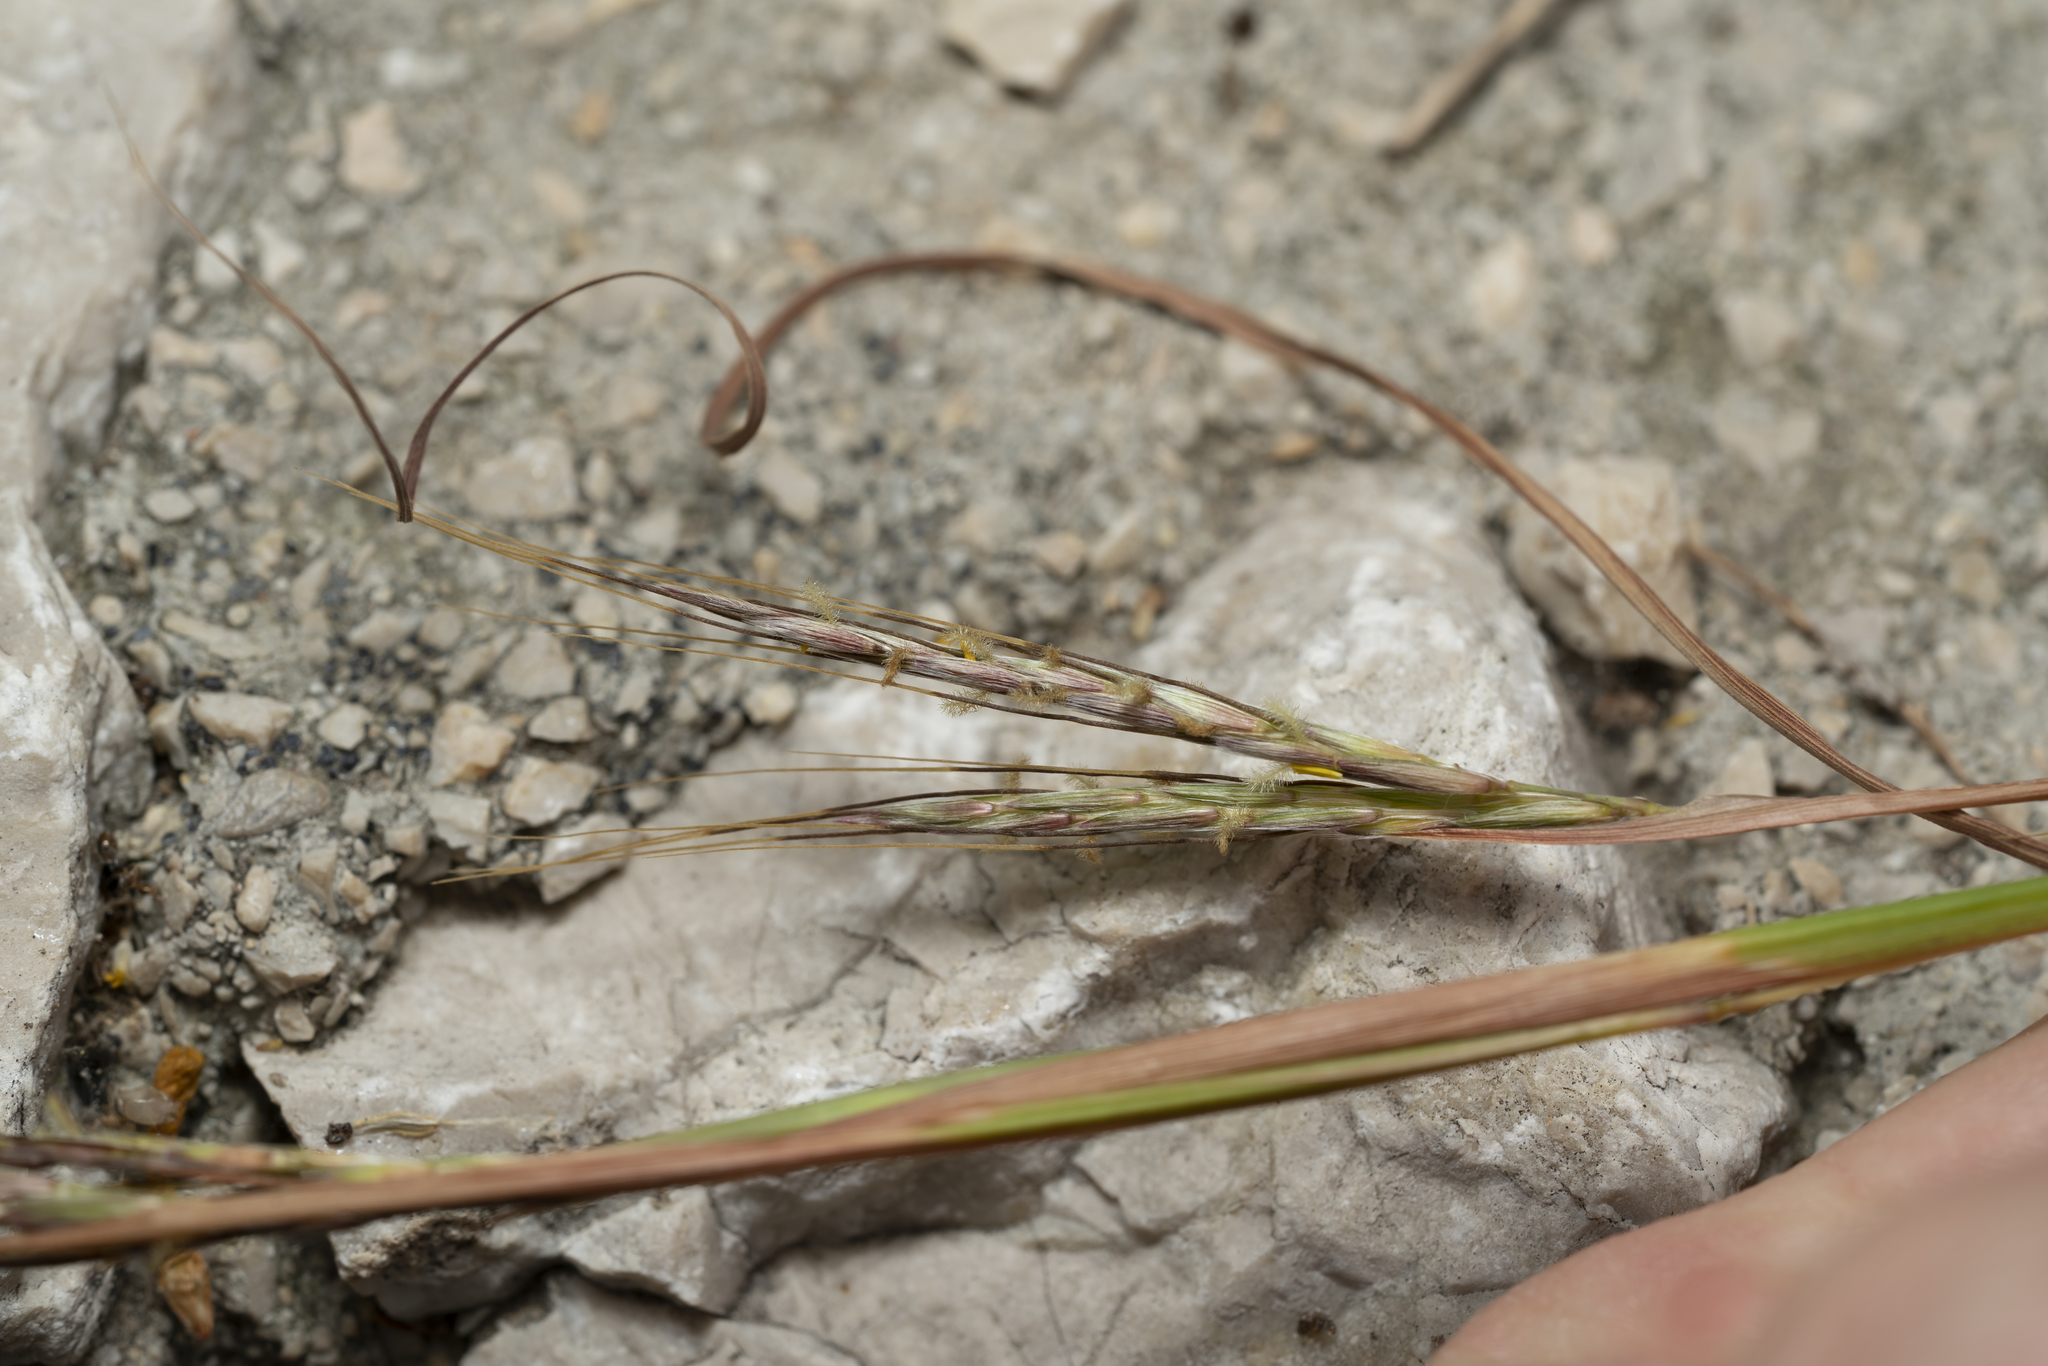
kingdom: Plantae
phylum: Tracheophyta
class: Liliopsida
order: Poales
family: Poaceae
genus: Hyparrhenia
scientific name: Hyparrhenia hirta
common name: Thatching grass
